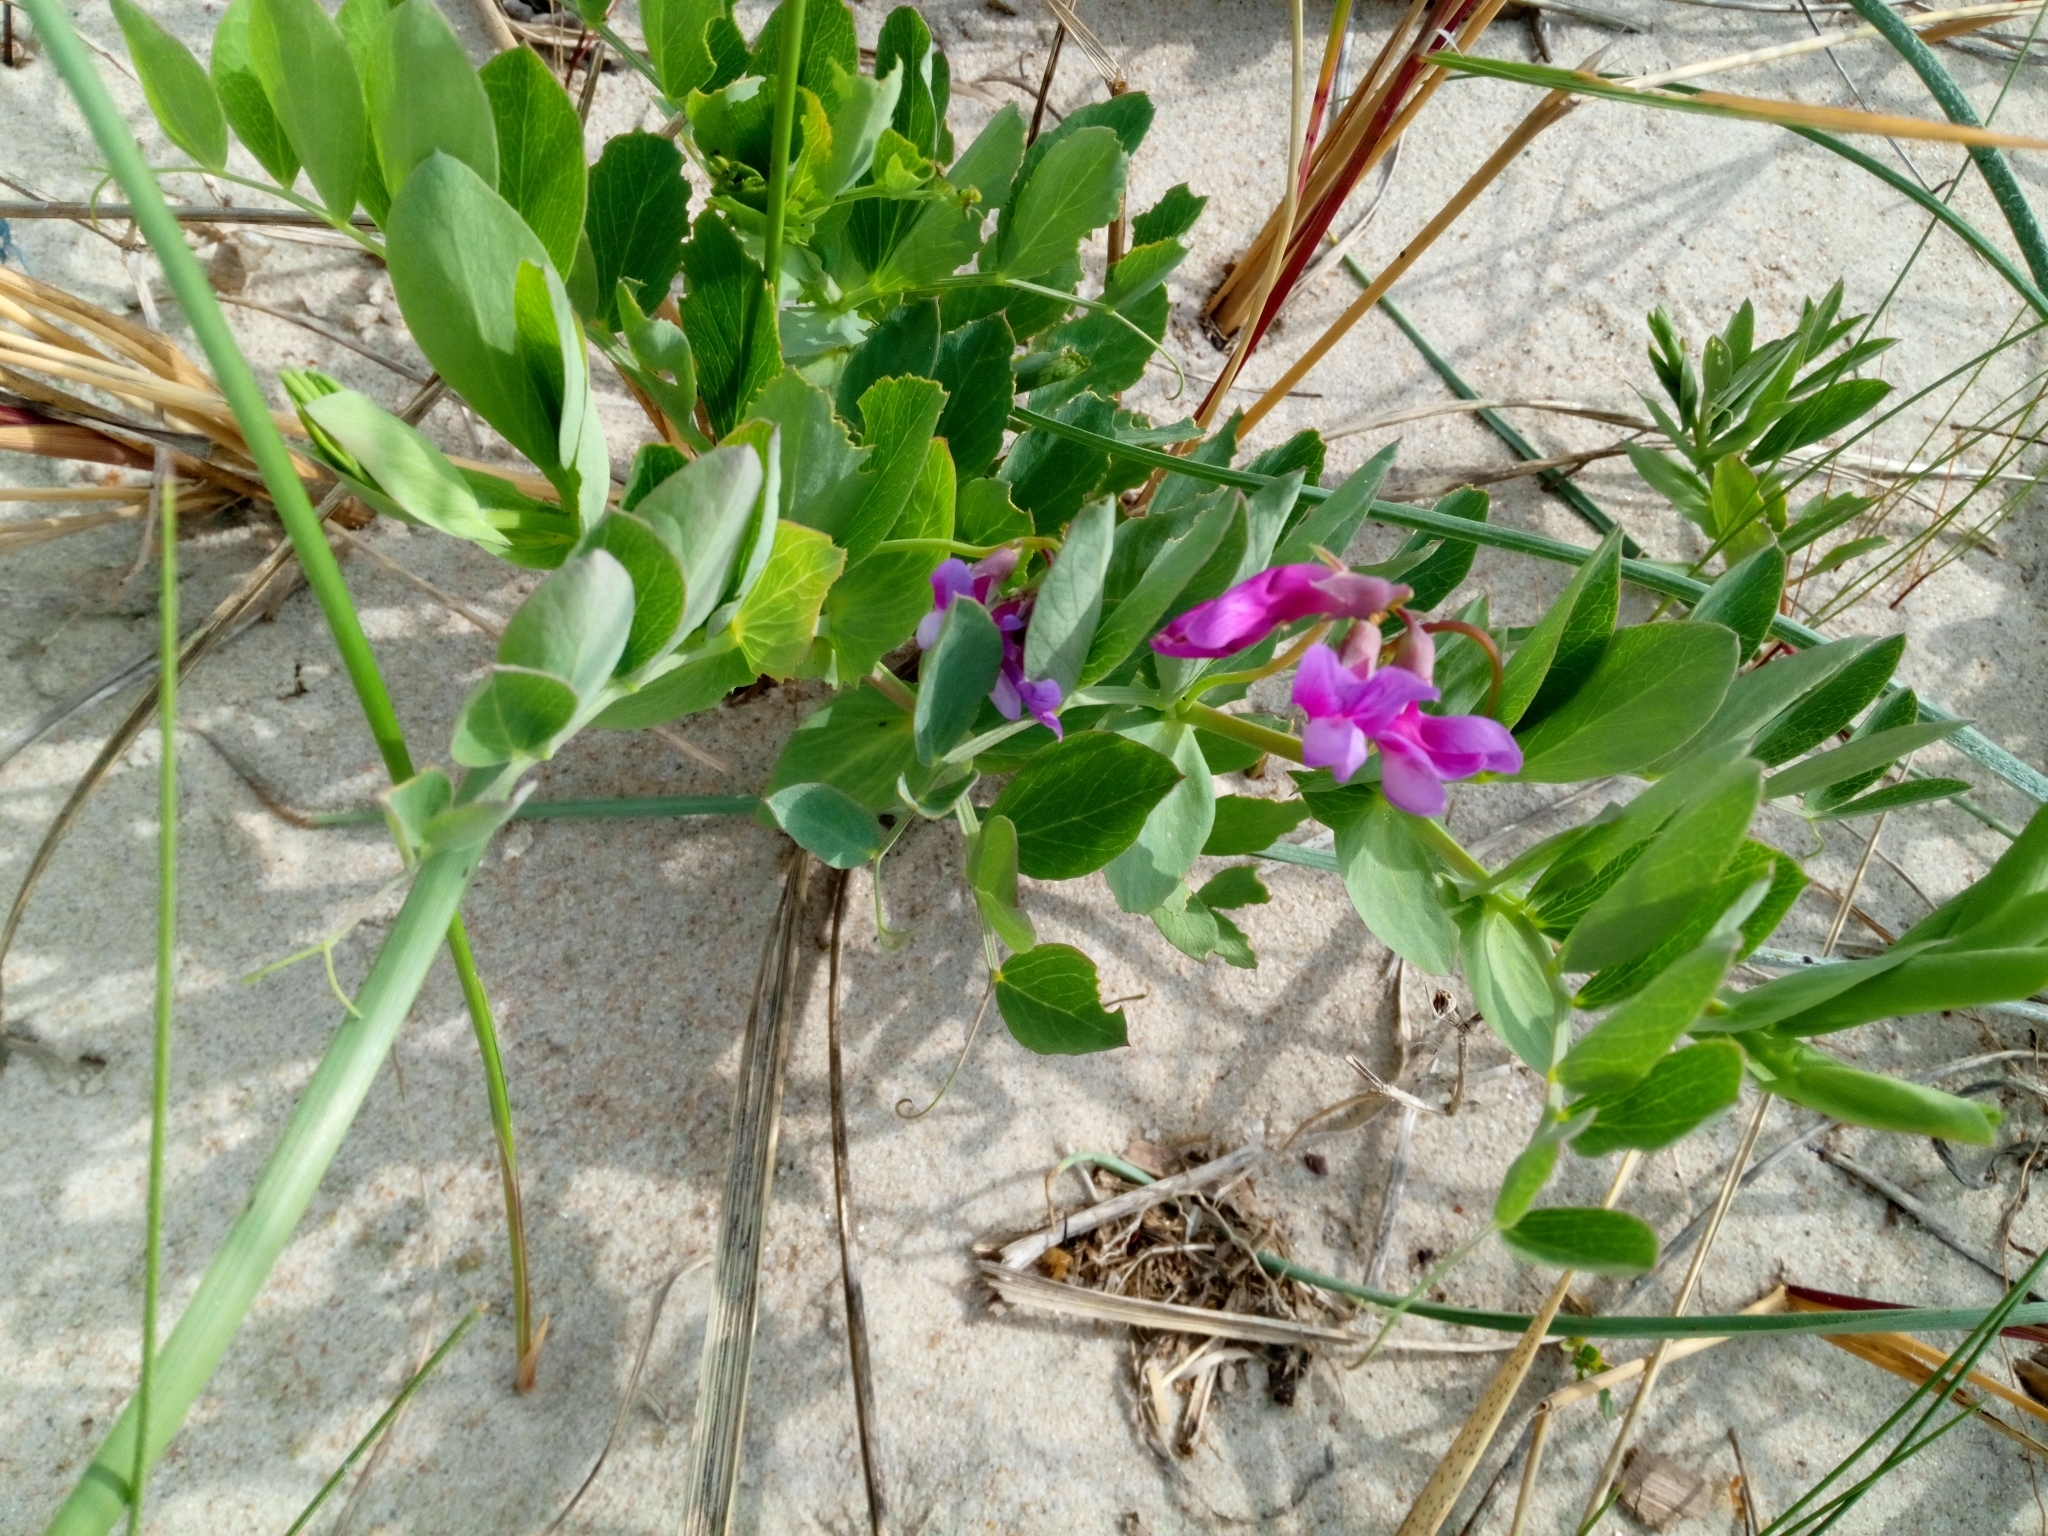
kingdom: Plantae
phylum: Tracheophyta
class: Magnoliopsida
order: Fabales
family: Fabaceae
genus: Lathyrus
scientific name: Lathyrus japonicus
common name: Sea pea
